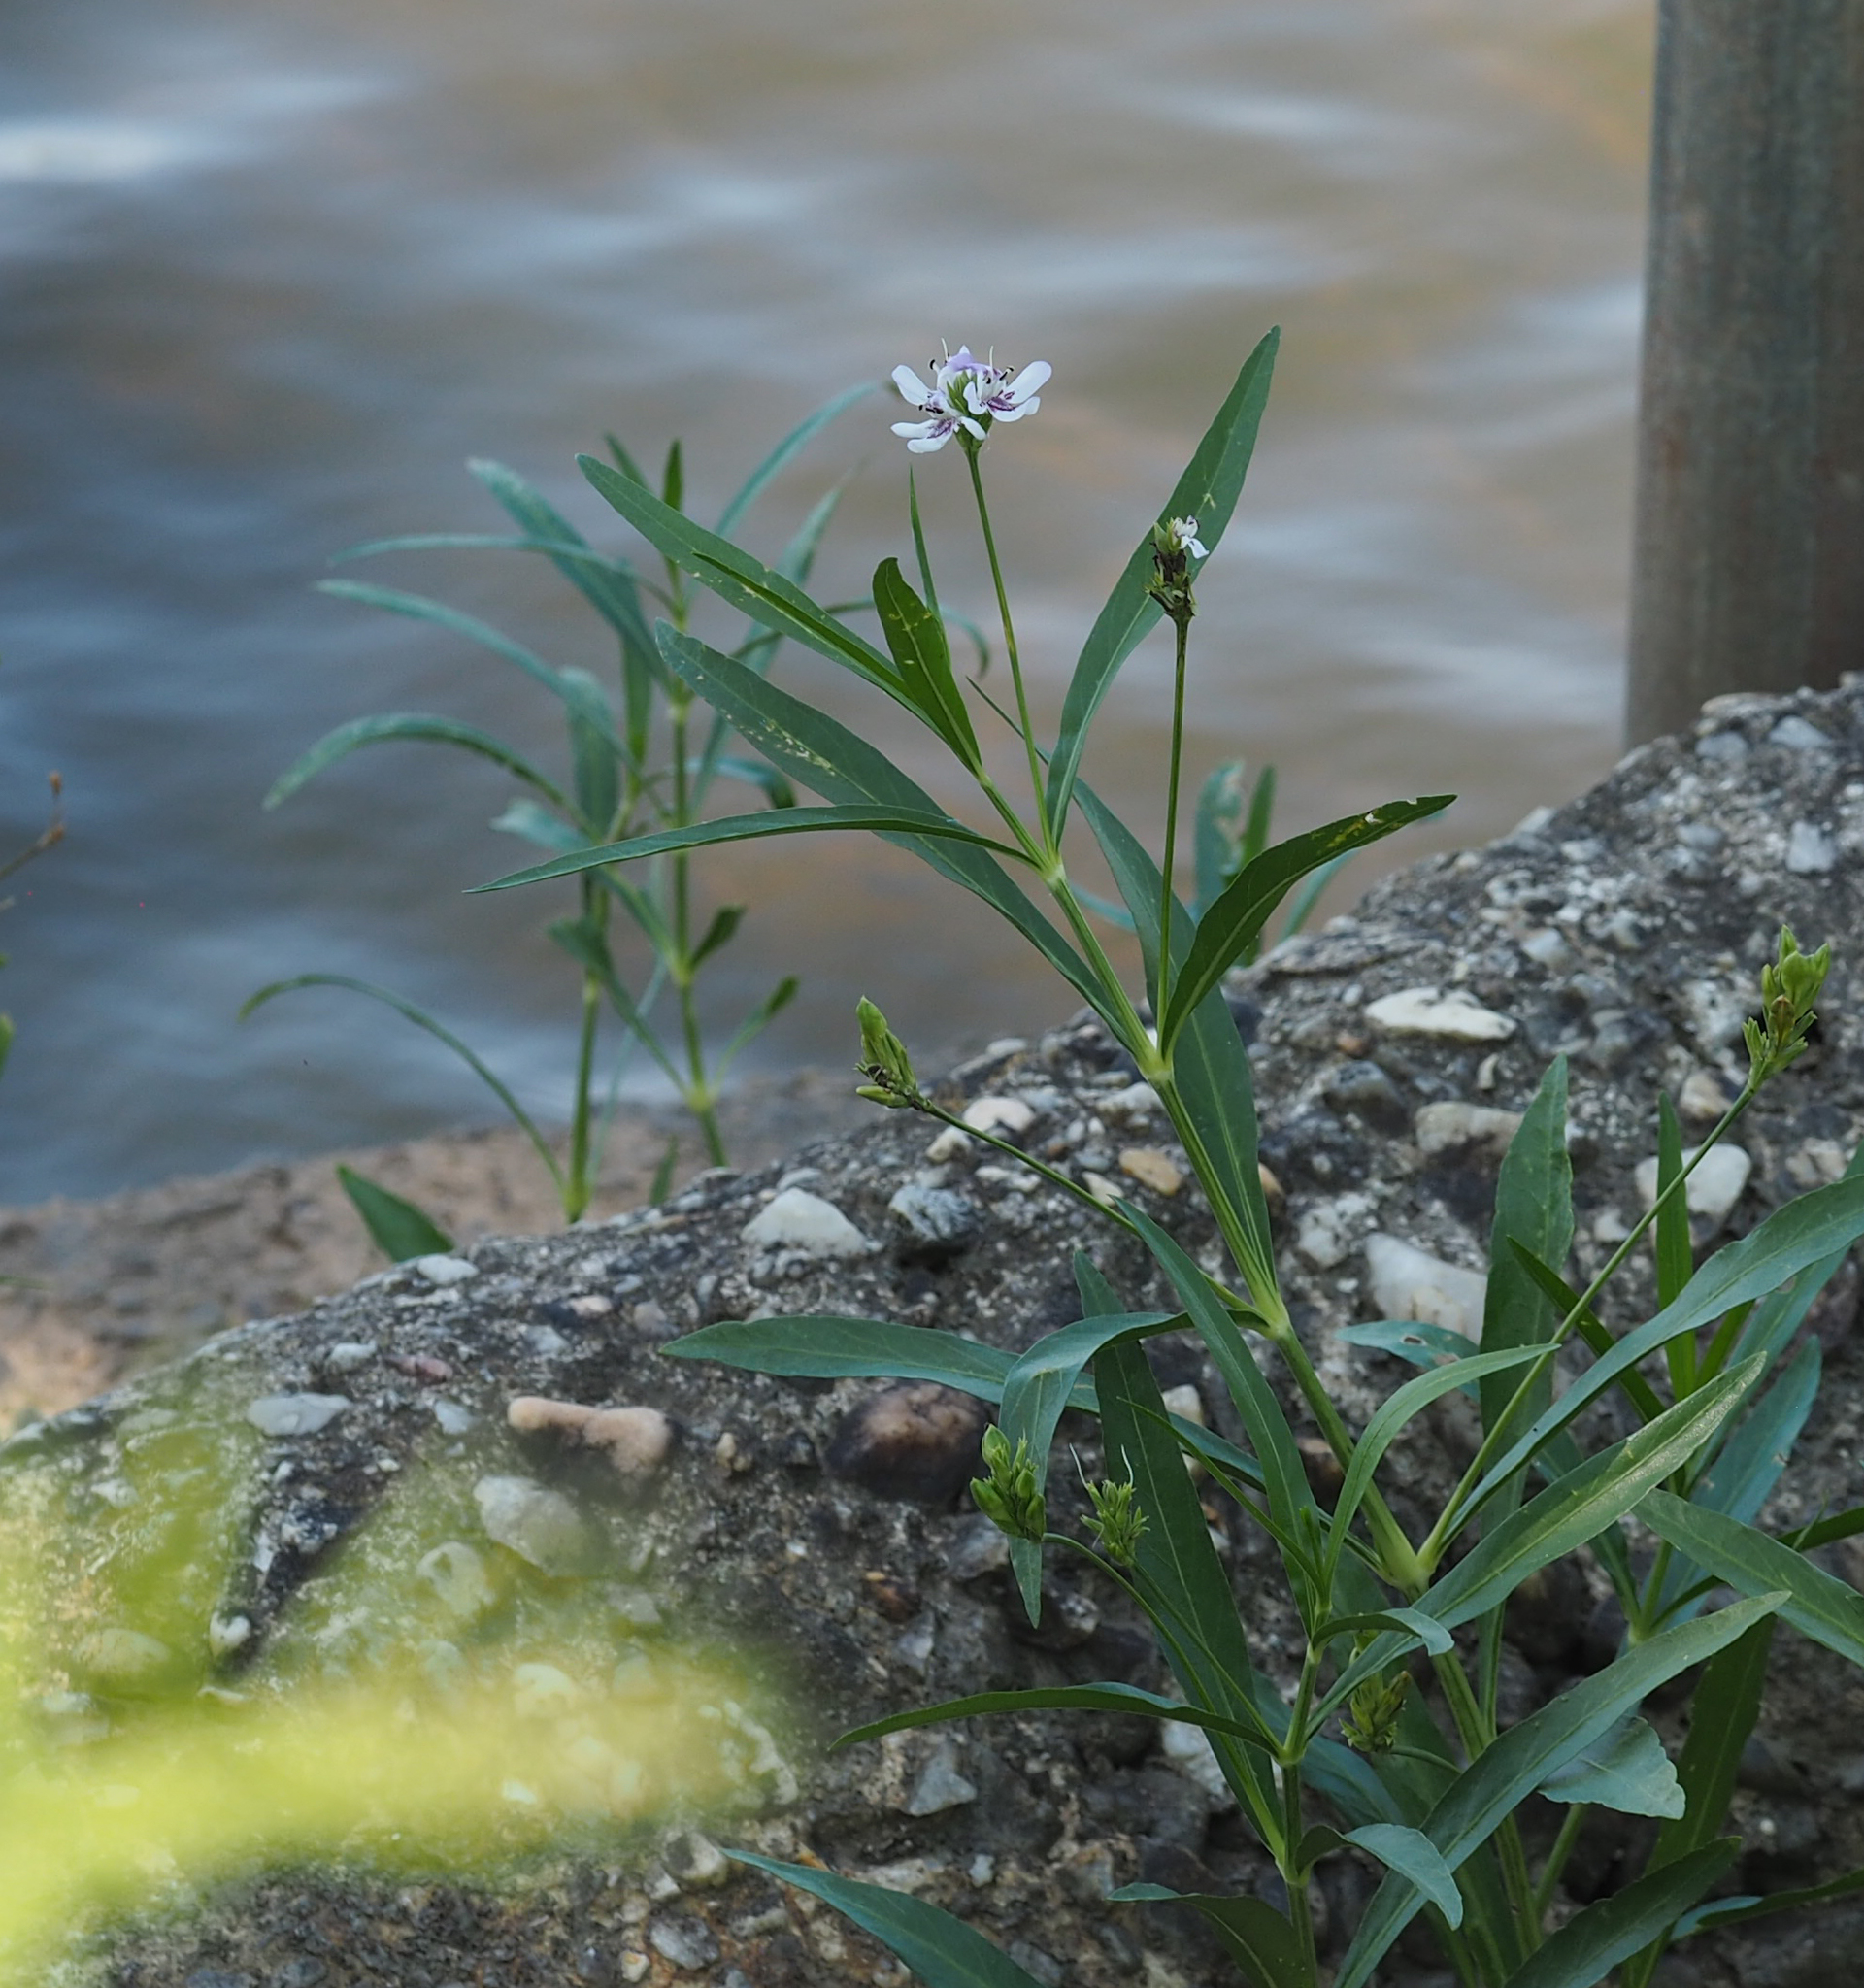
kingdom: Plantae
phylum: Tracheophyta
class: Magnoliopsida
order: Lamiales
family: Acanthaceae
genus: Dianthera
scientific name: Dianthera americana
